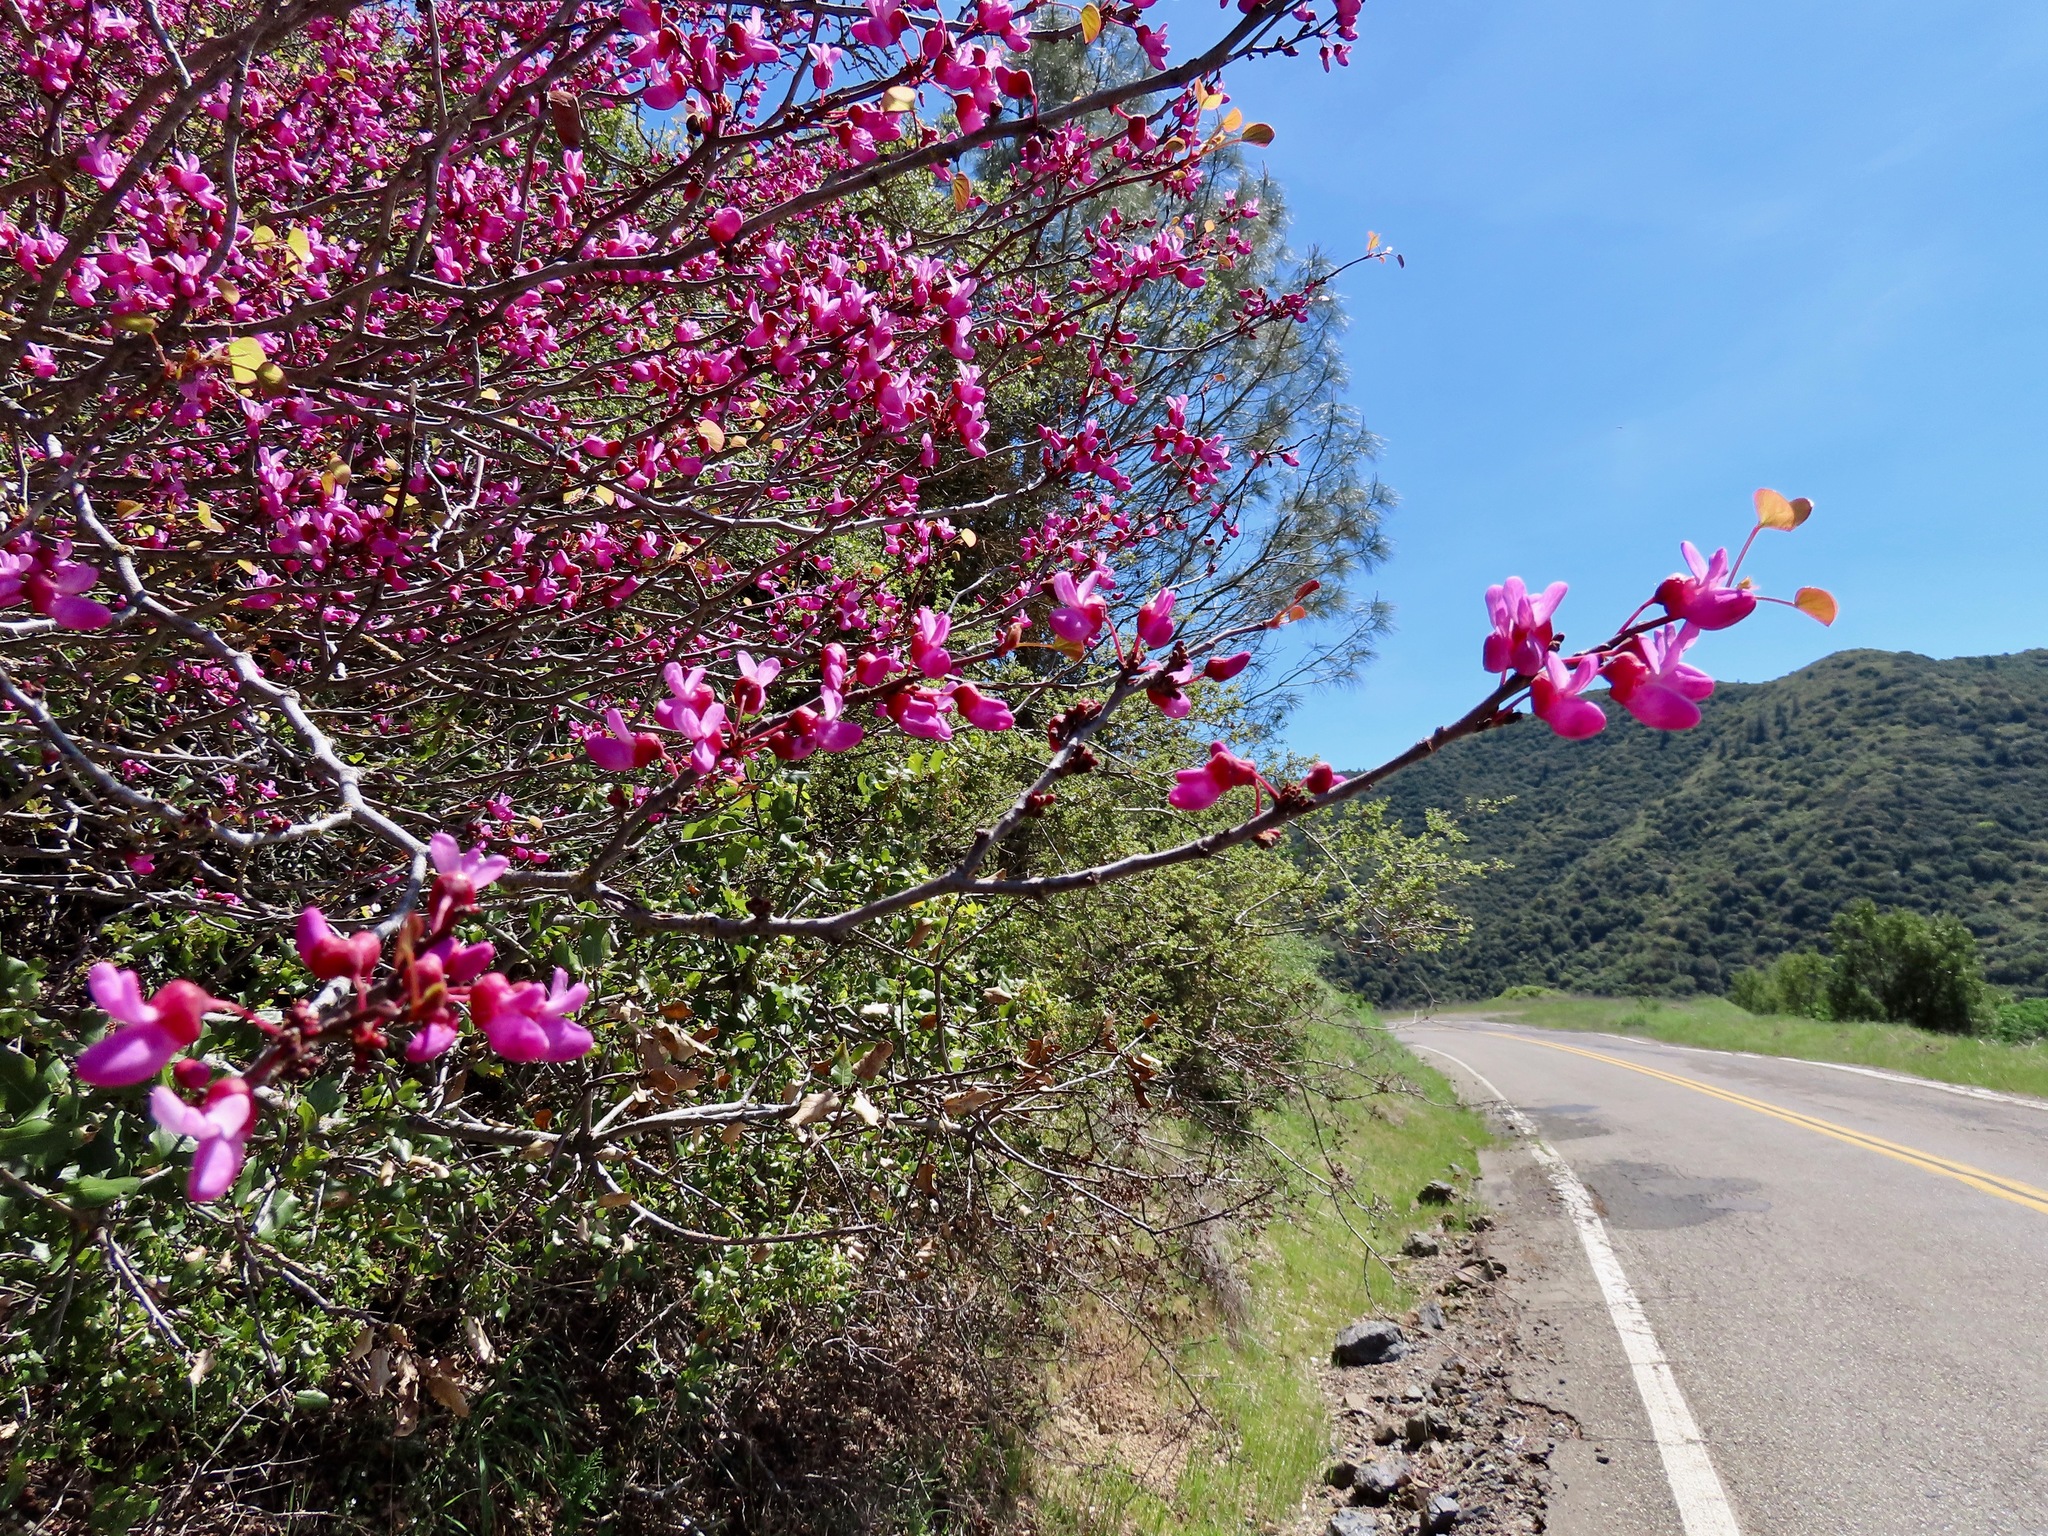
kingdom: Plantae
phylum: Tracheophyta
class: Magnoliopsida
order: Fabales
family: Fabaceae
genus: Cercis
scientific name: Cercis occidentalis
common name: California redbud
